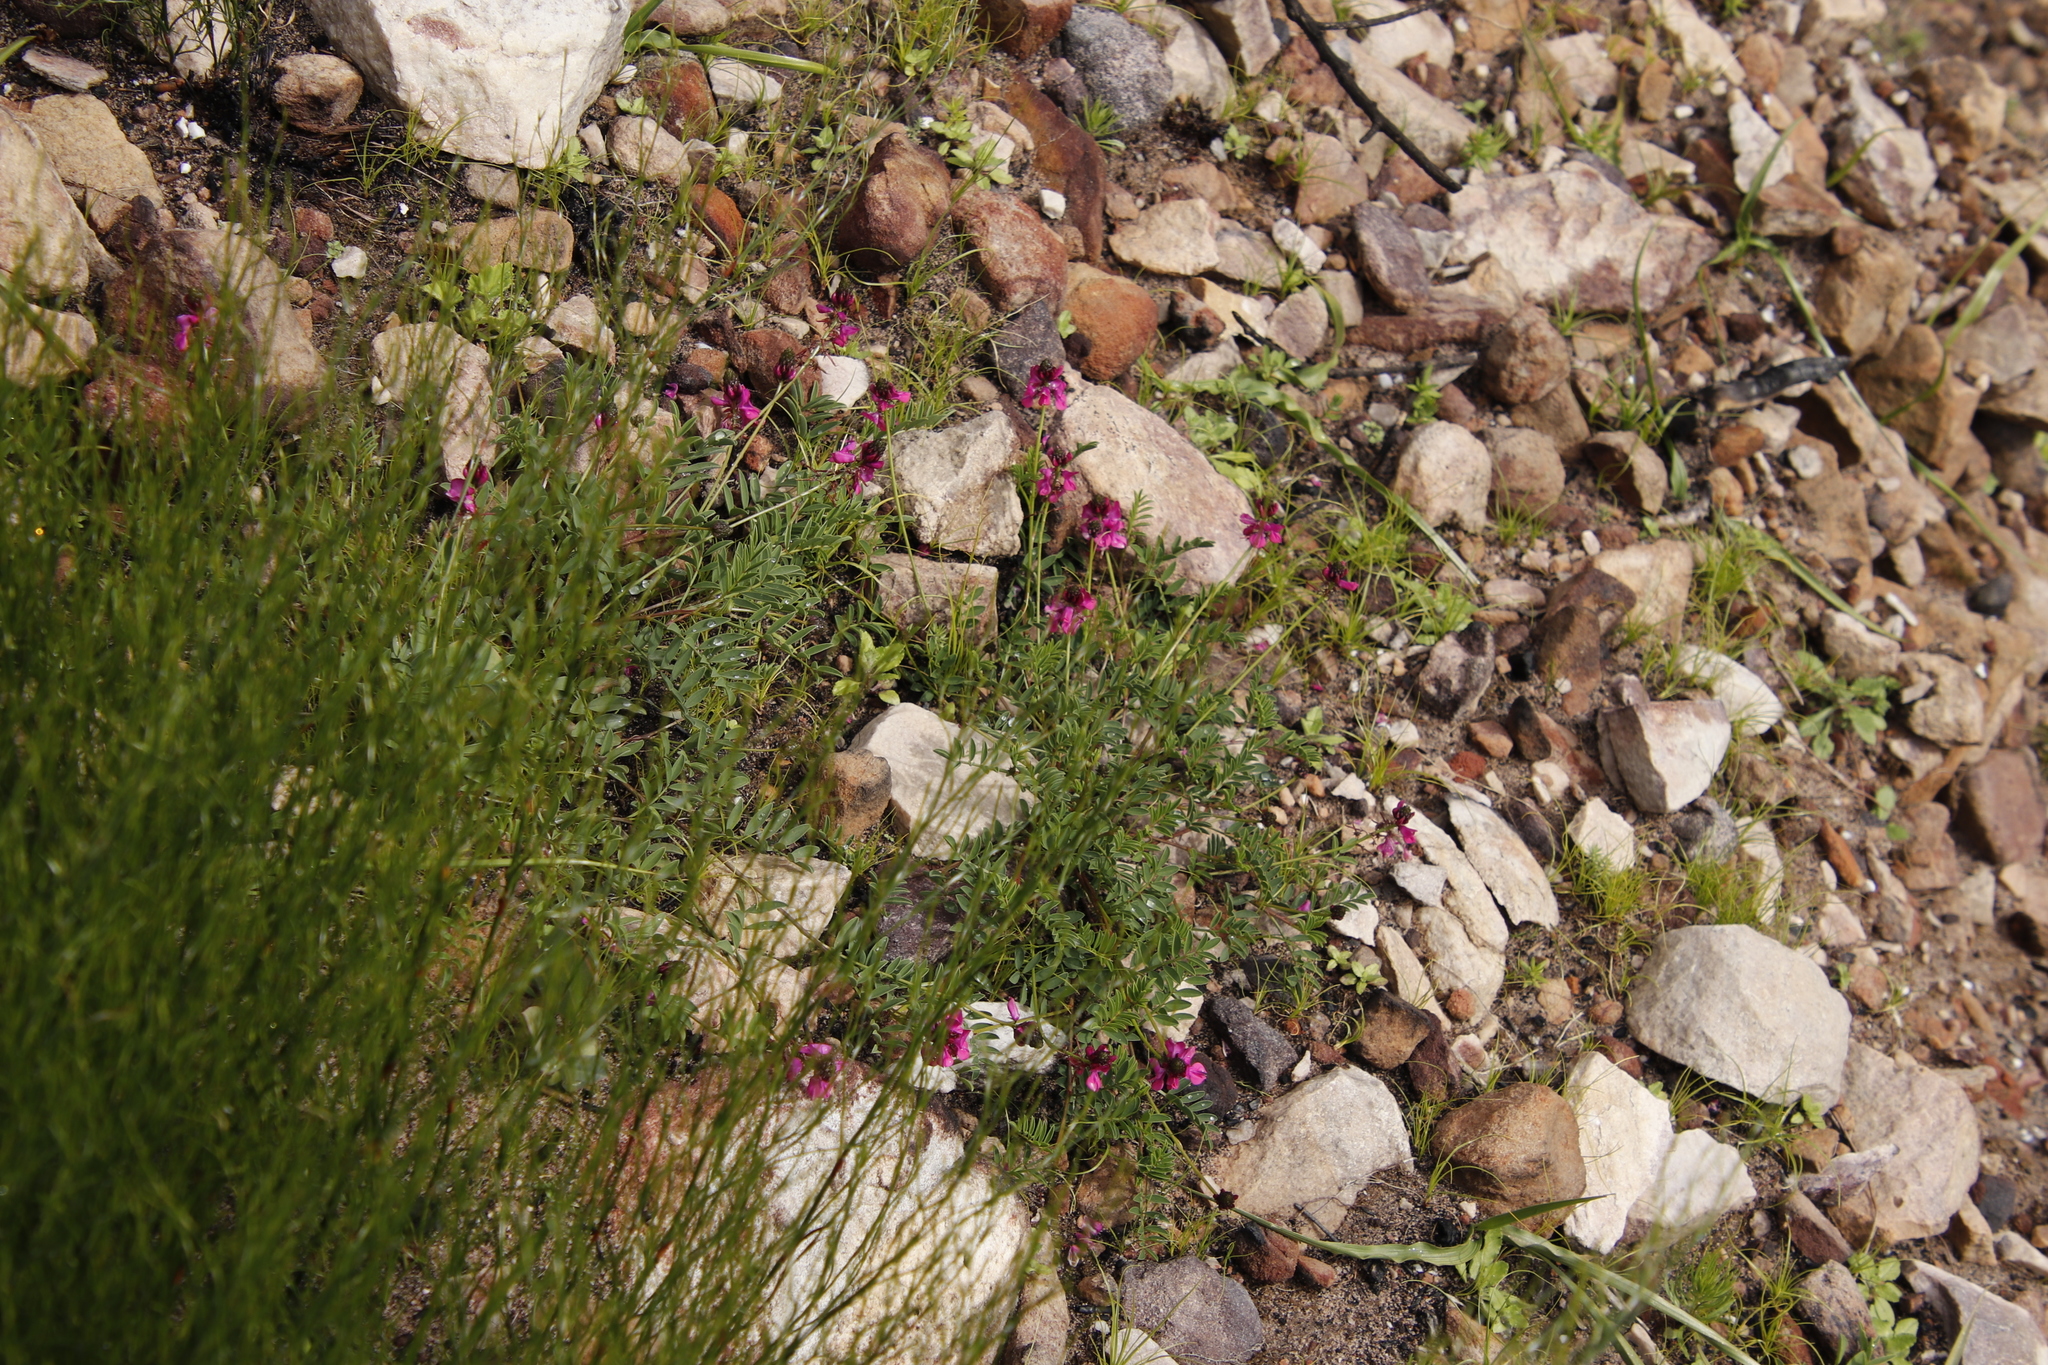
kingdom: Plantae
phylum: Tracheophyta
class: Magnoliopsida
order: Fabales
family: Fabaceae
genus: Indigofera
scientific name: Indigofera capillaris
